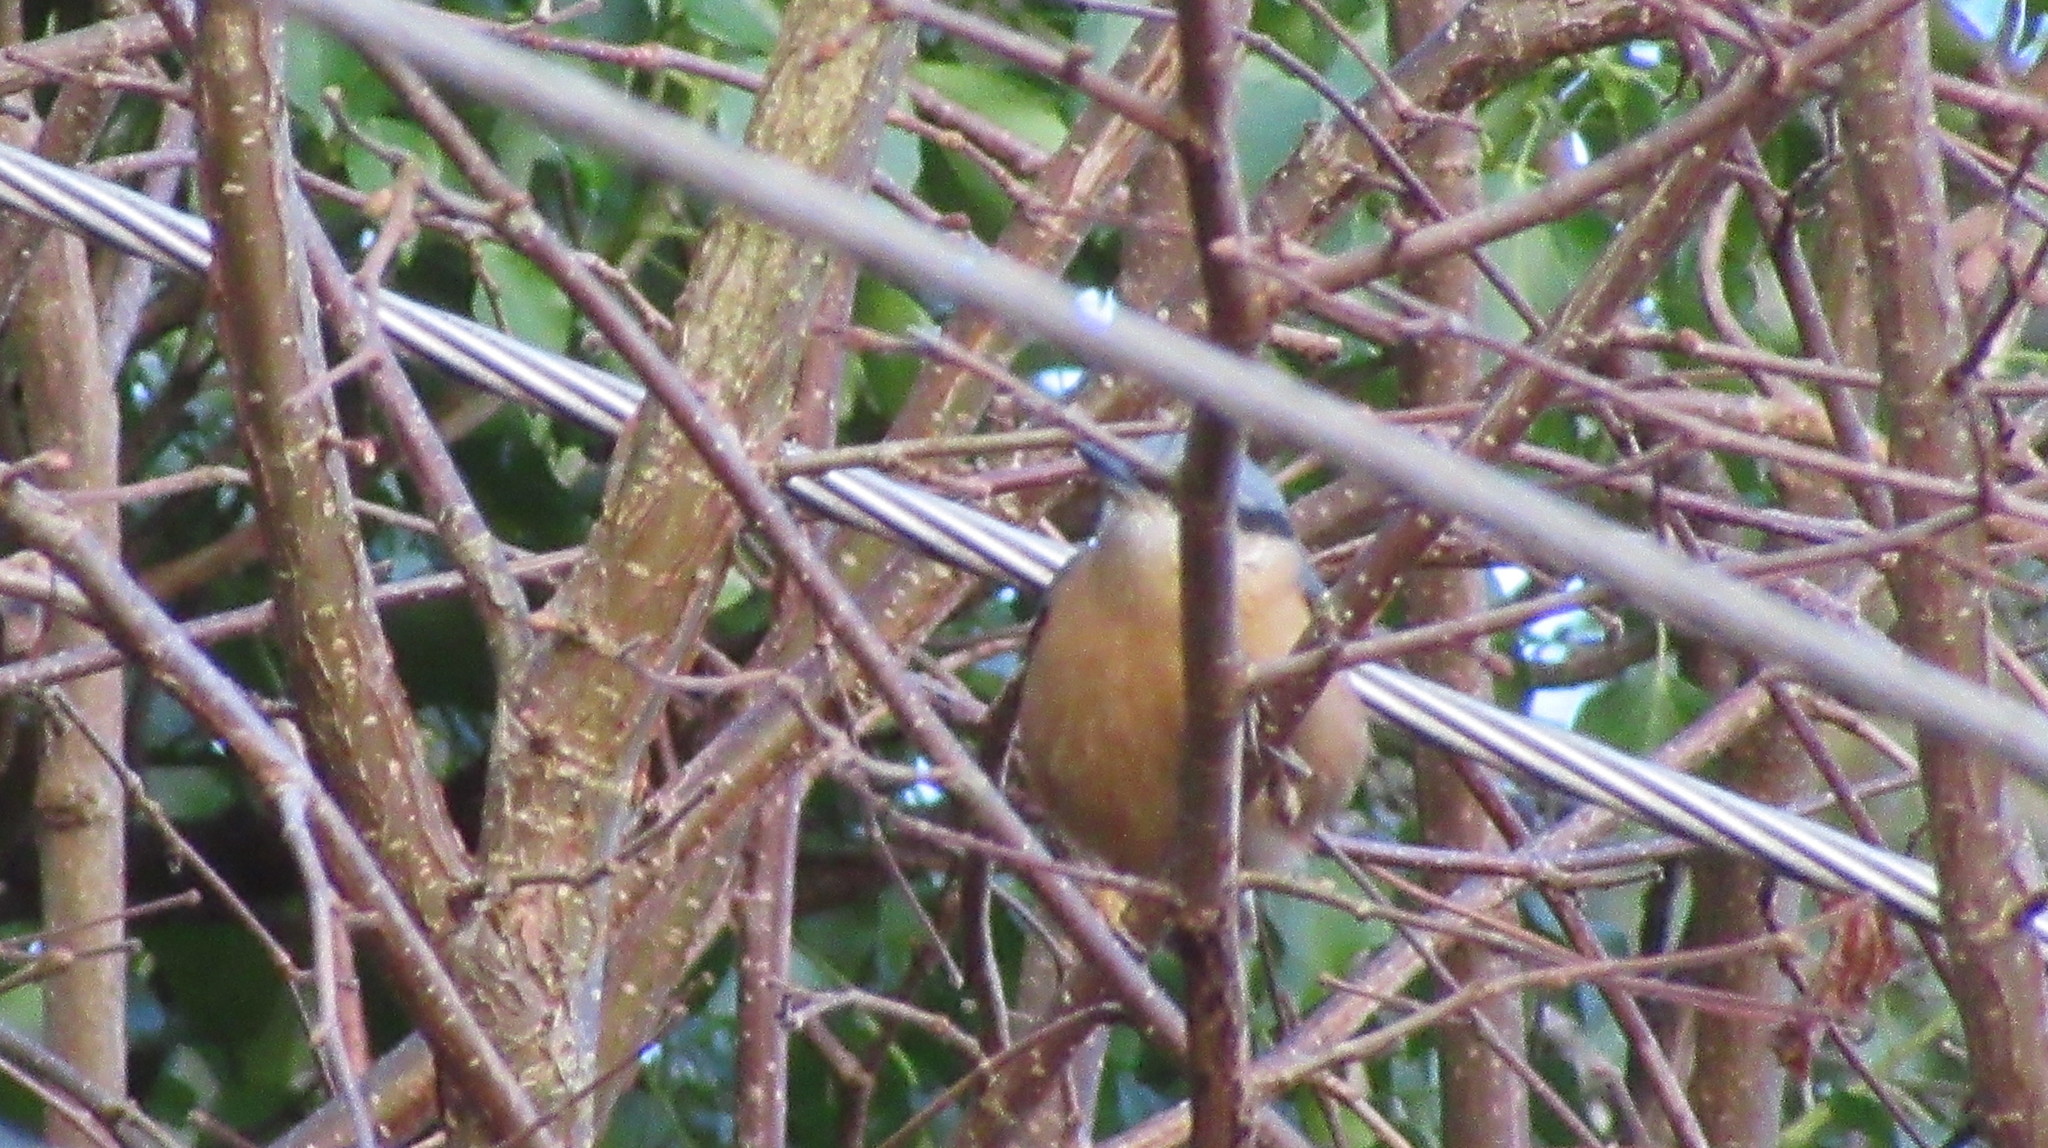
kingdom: Animalia
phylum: Chordata
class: Aves
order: Passeriformes
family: Sittidae
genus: Sitta
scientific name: Sitta europaea
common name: Eurasian nuthatch
